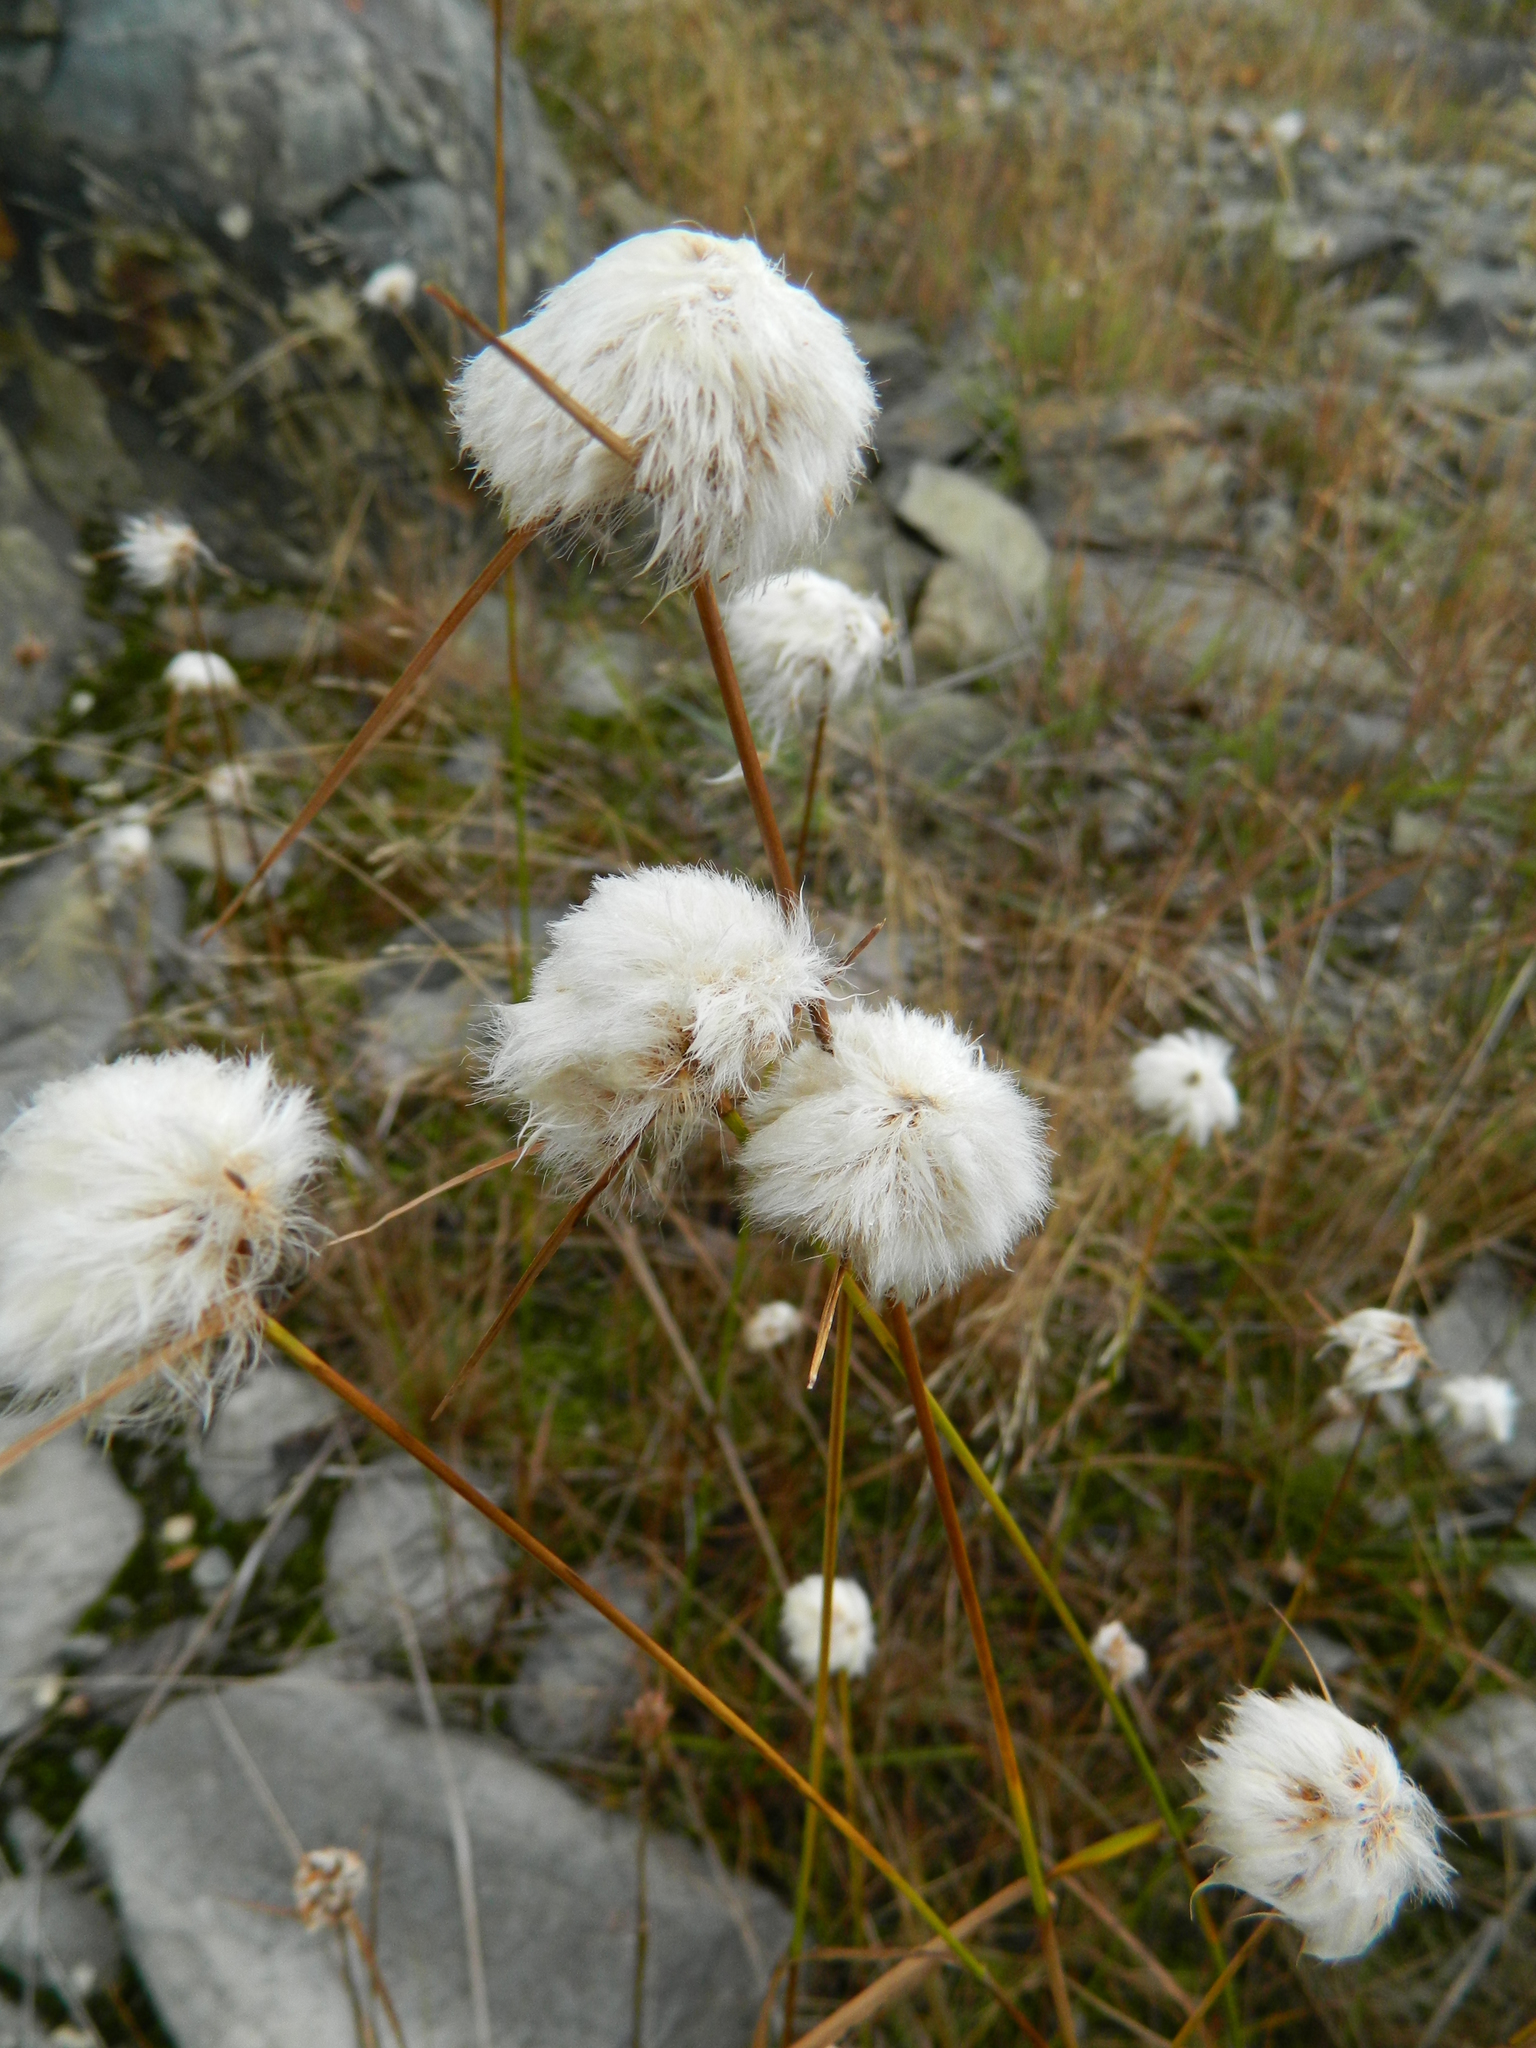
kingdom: Plantae
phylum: Tracheophyta
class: Liliopsida
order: Poales
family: Cyperaceae
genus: Eriophorum
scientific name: Eriophorum virginicum
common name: Tawny cottongrass
